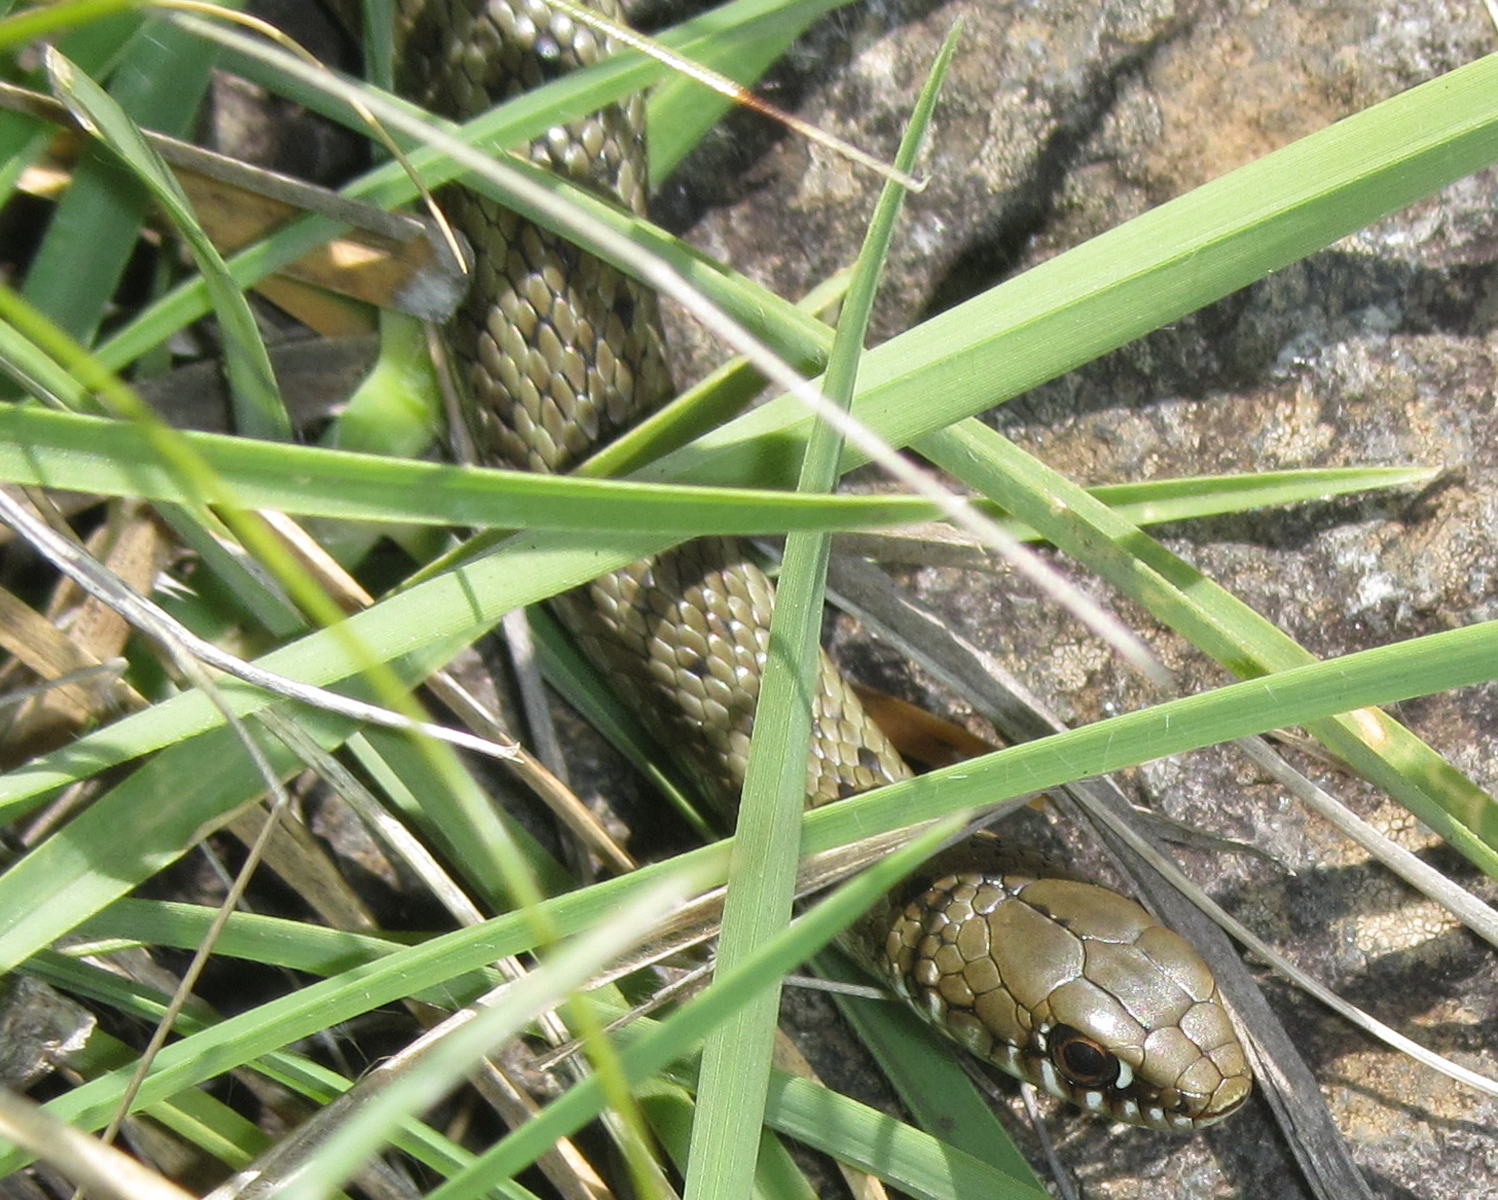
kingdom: Animalia
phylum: Chordata
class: Squamata
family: Pseudoxyrhophiidae
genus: Amplorhinus
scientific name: Amplorhinus multimaculatus
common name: Many-spotted snake
